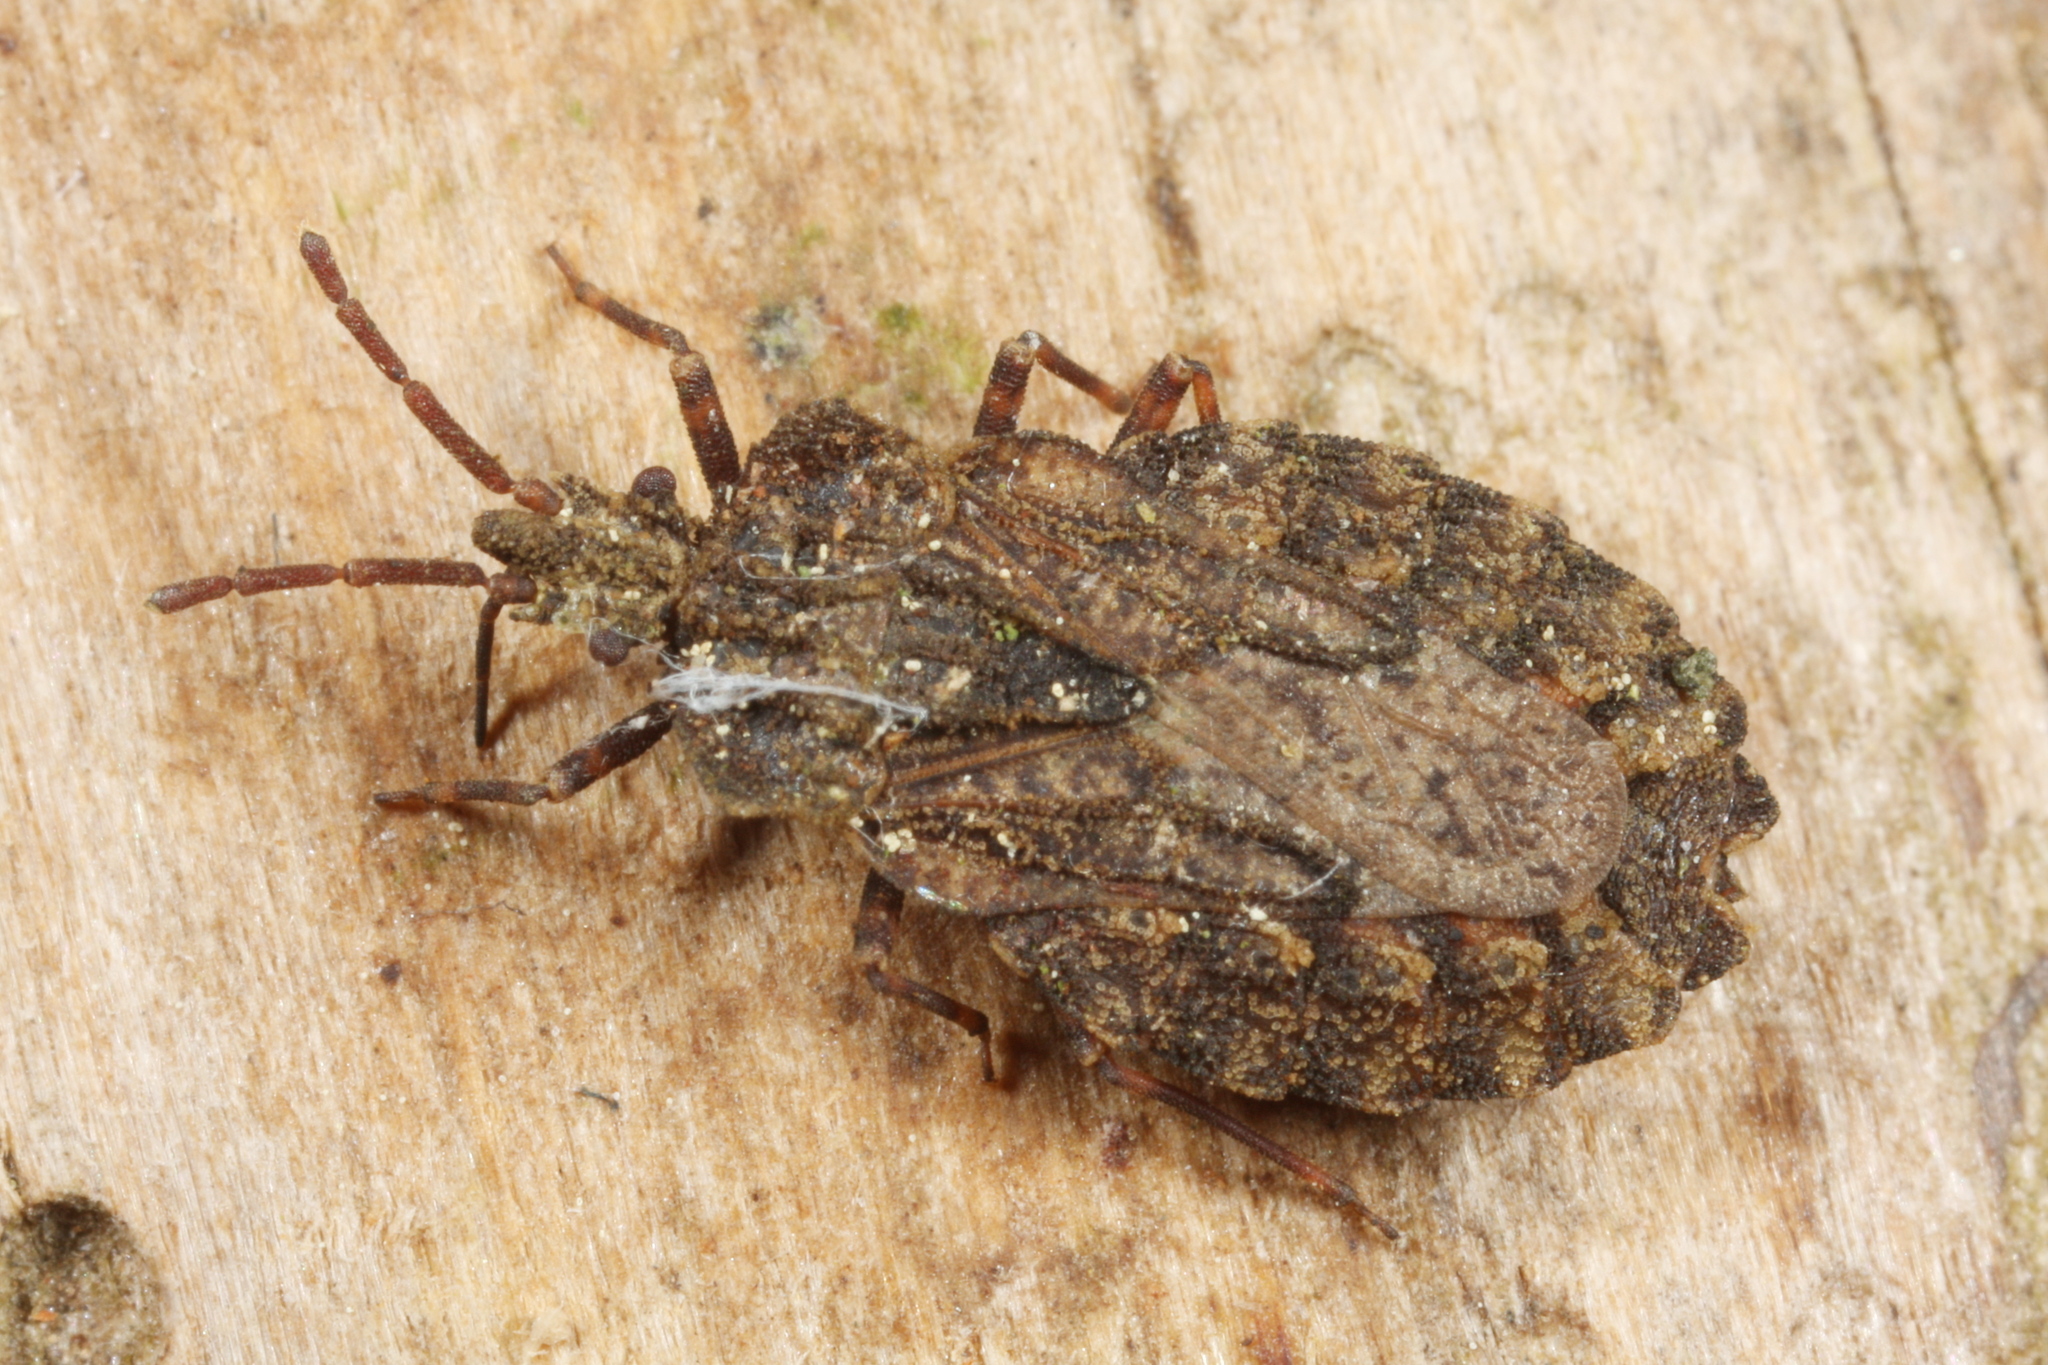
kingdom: Animalia
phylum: Arthropoda
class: Insecta
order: Hemiptera
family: Aradidae
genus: Aradus
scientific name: Aradus conspicuus
